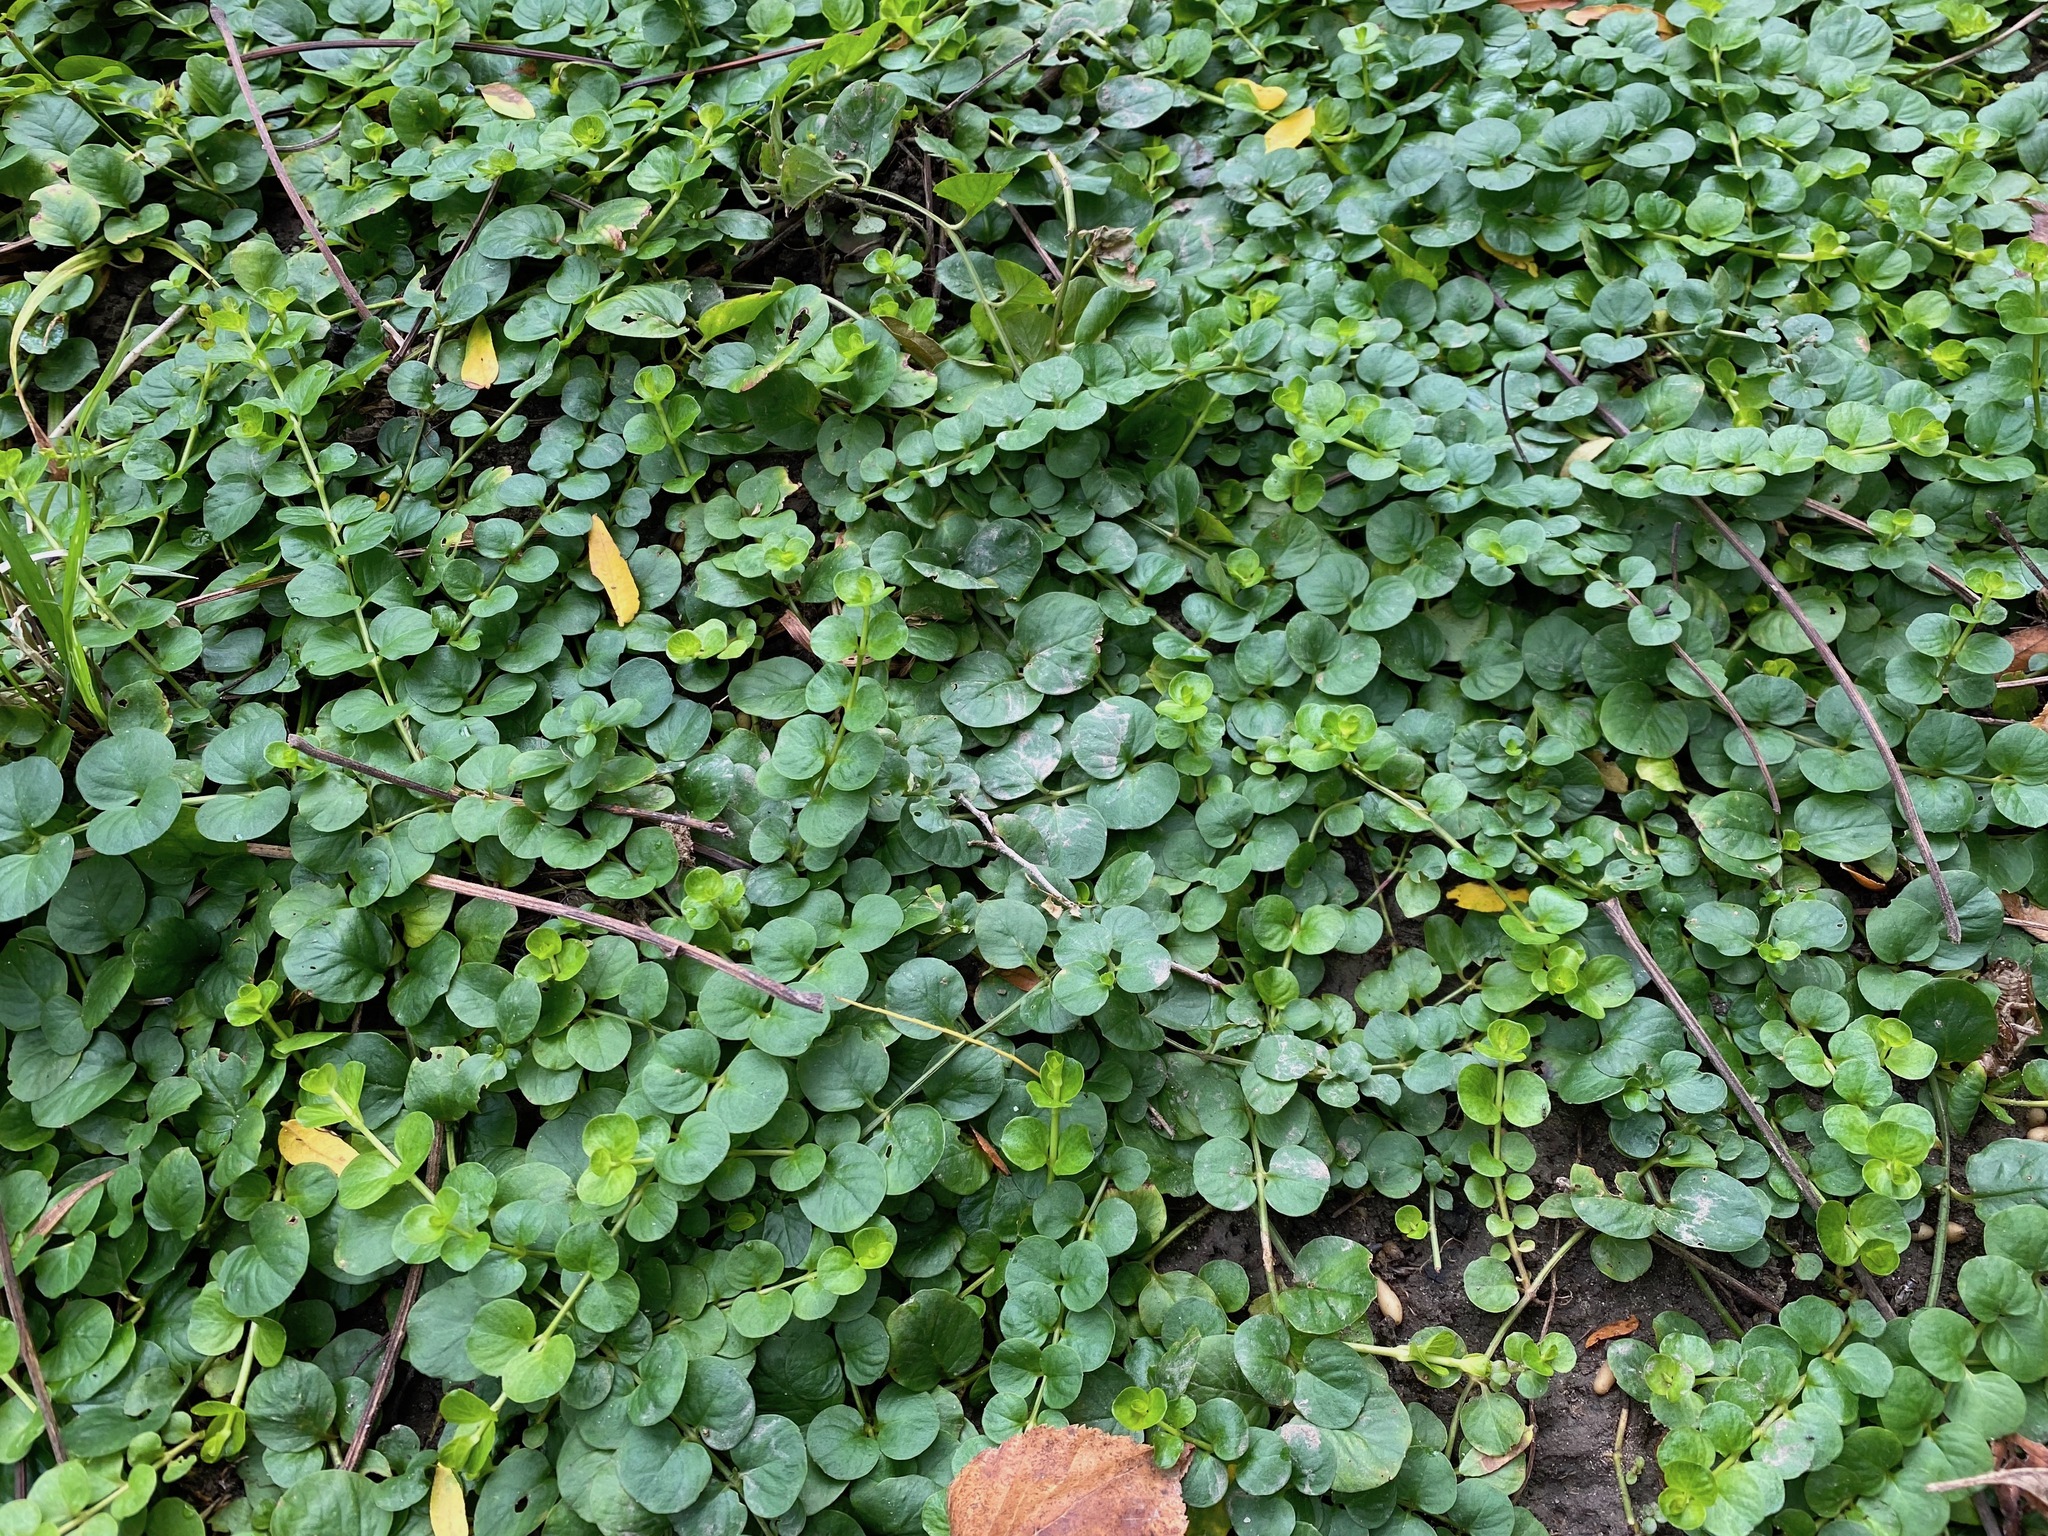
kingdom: Plantae
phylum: Tracheophyta
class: Magnoliopsida
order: Ericales
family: Primulaceae
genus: Lysimachia
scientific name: Lysimachia nummularia
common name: Moneywort
